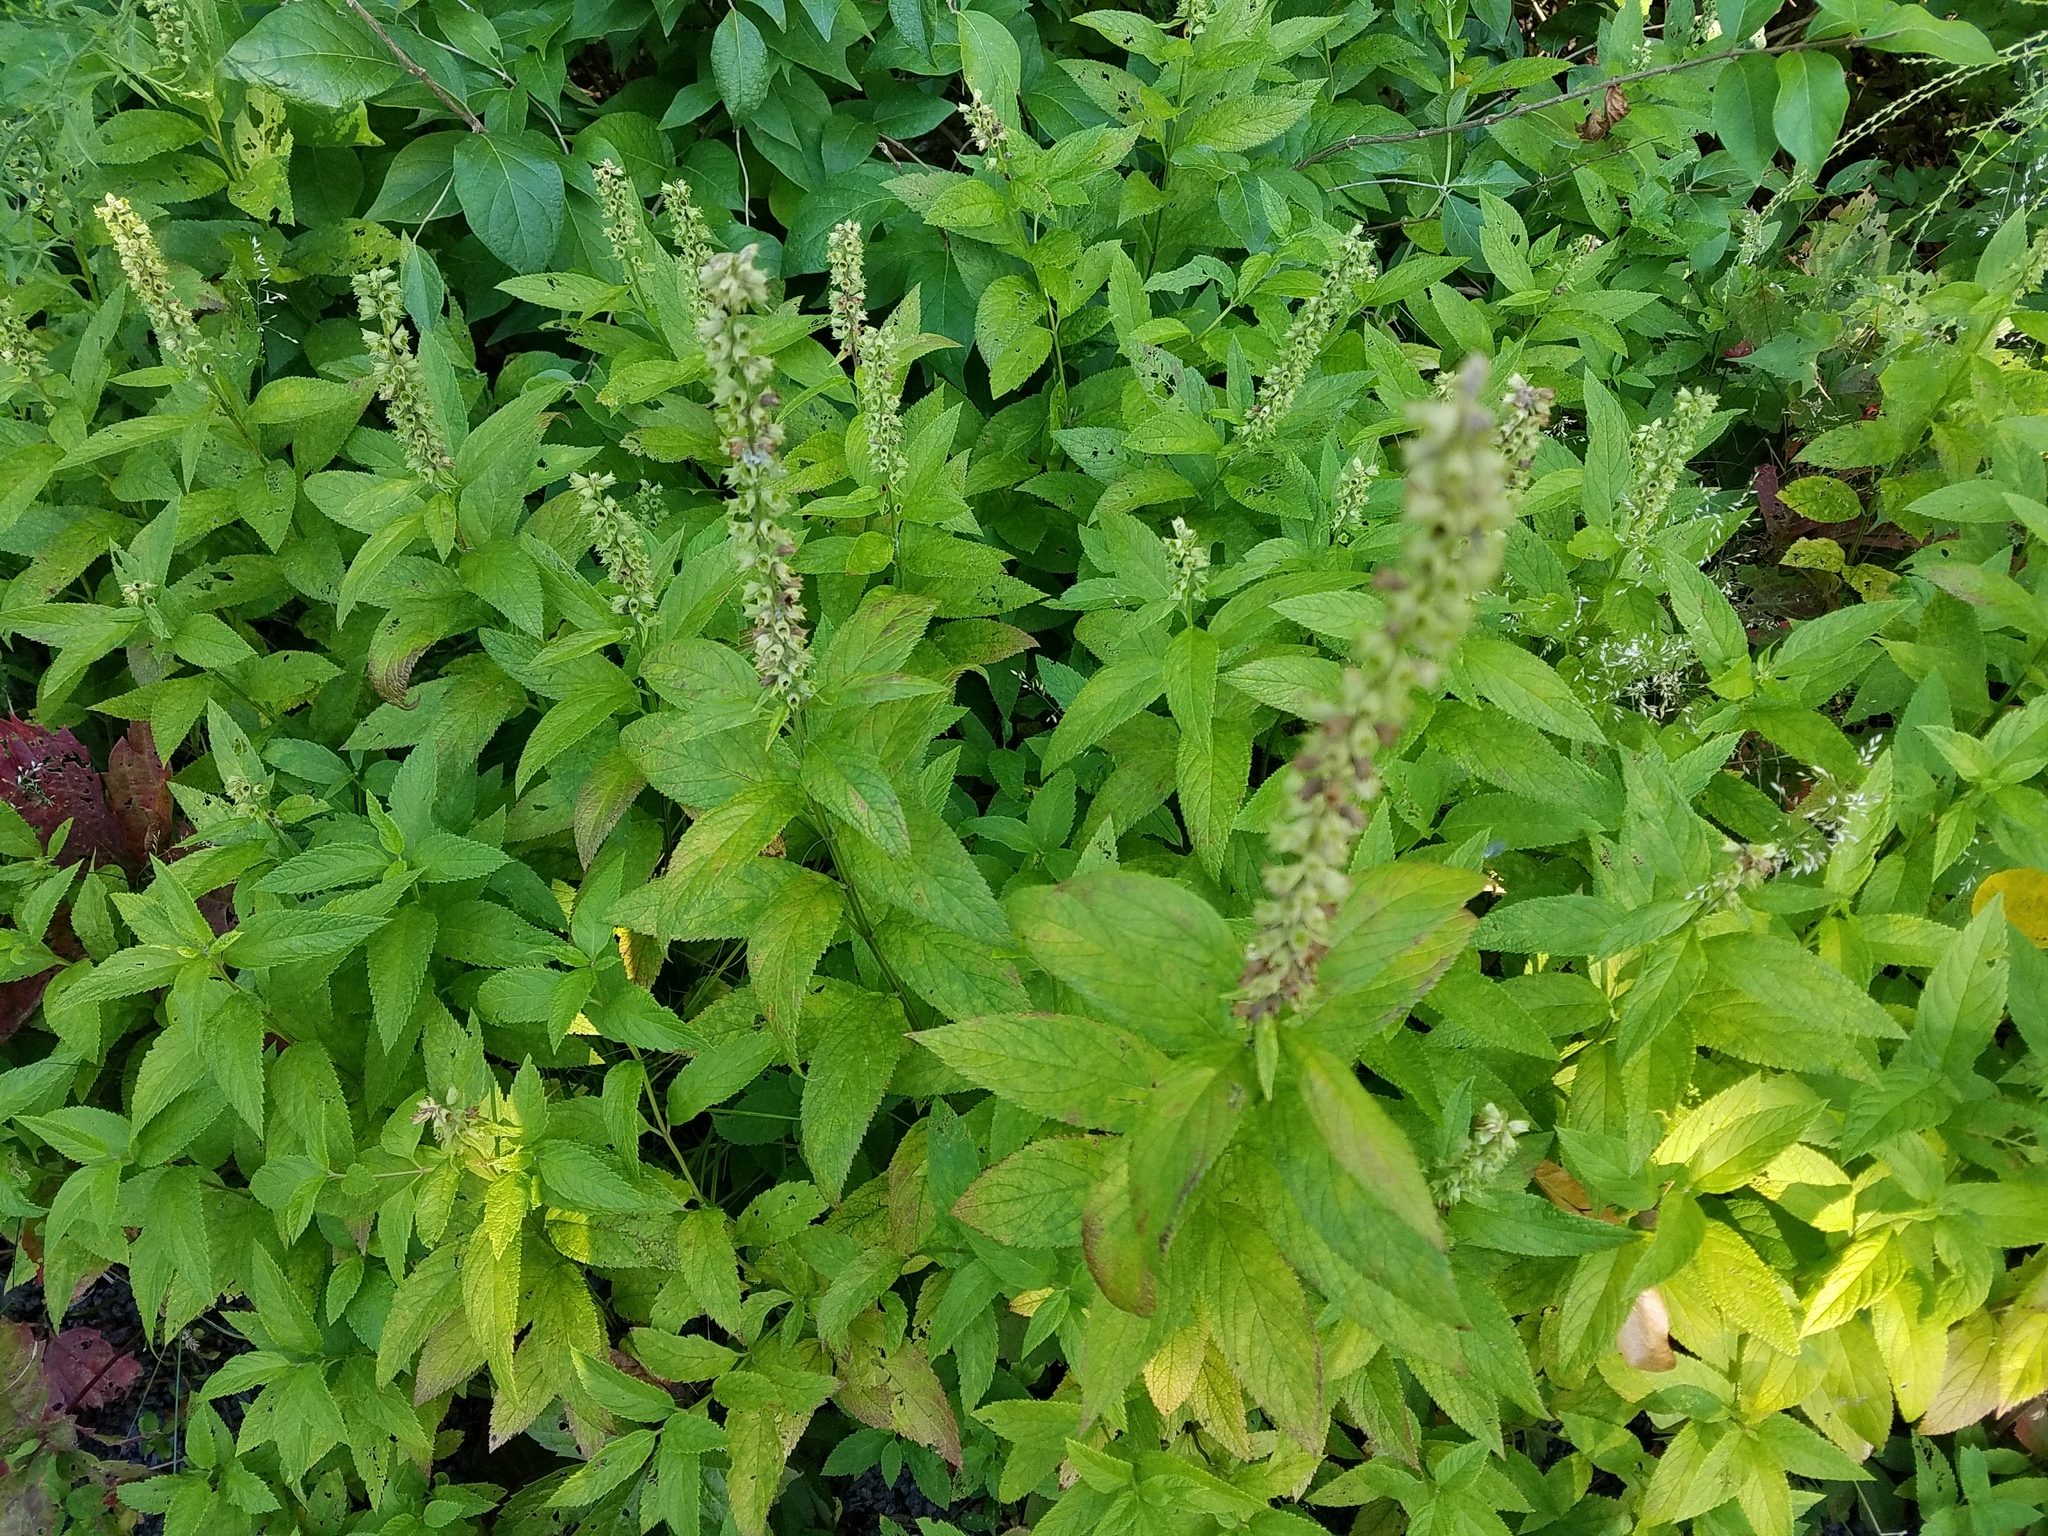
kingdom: Plantae
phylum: Tracheophyta
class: Magnoliopsida
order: Lamiales
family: Lamiaceae
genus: Teucrium
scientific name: Teucrium canadense
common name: American germander
